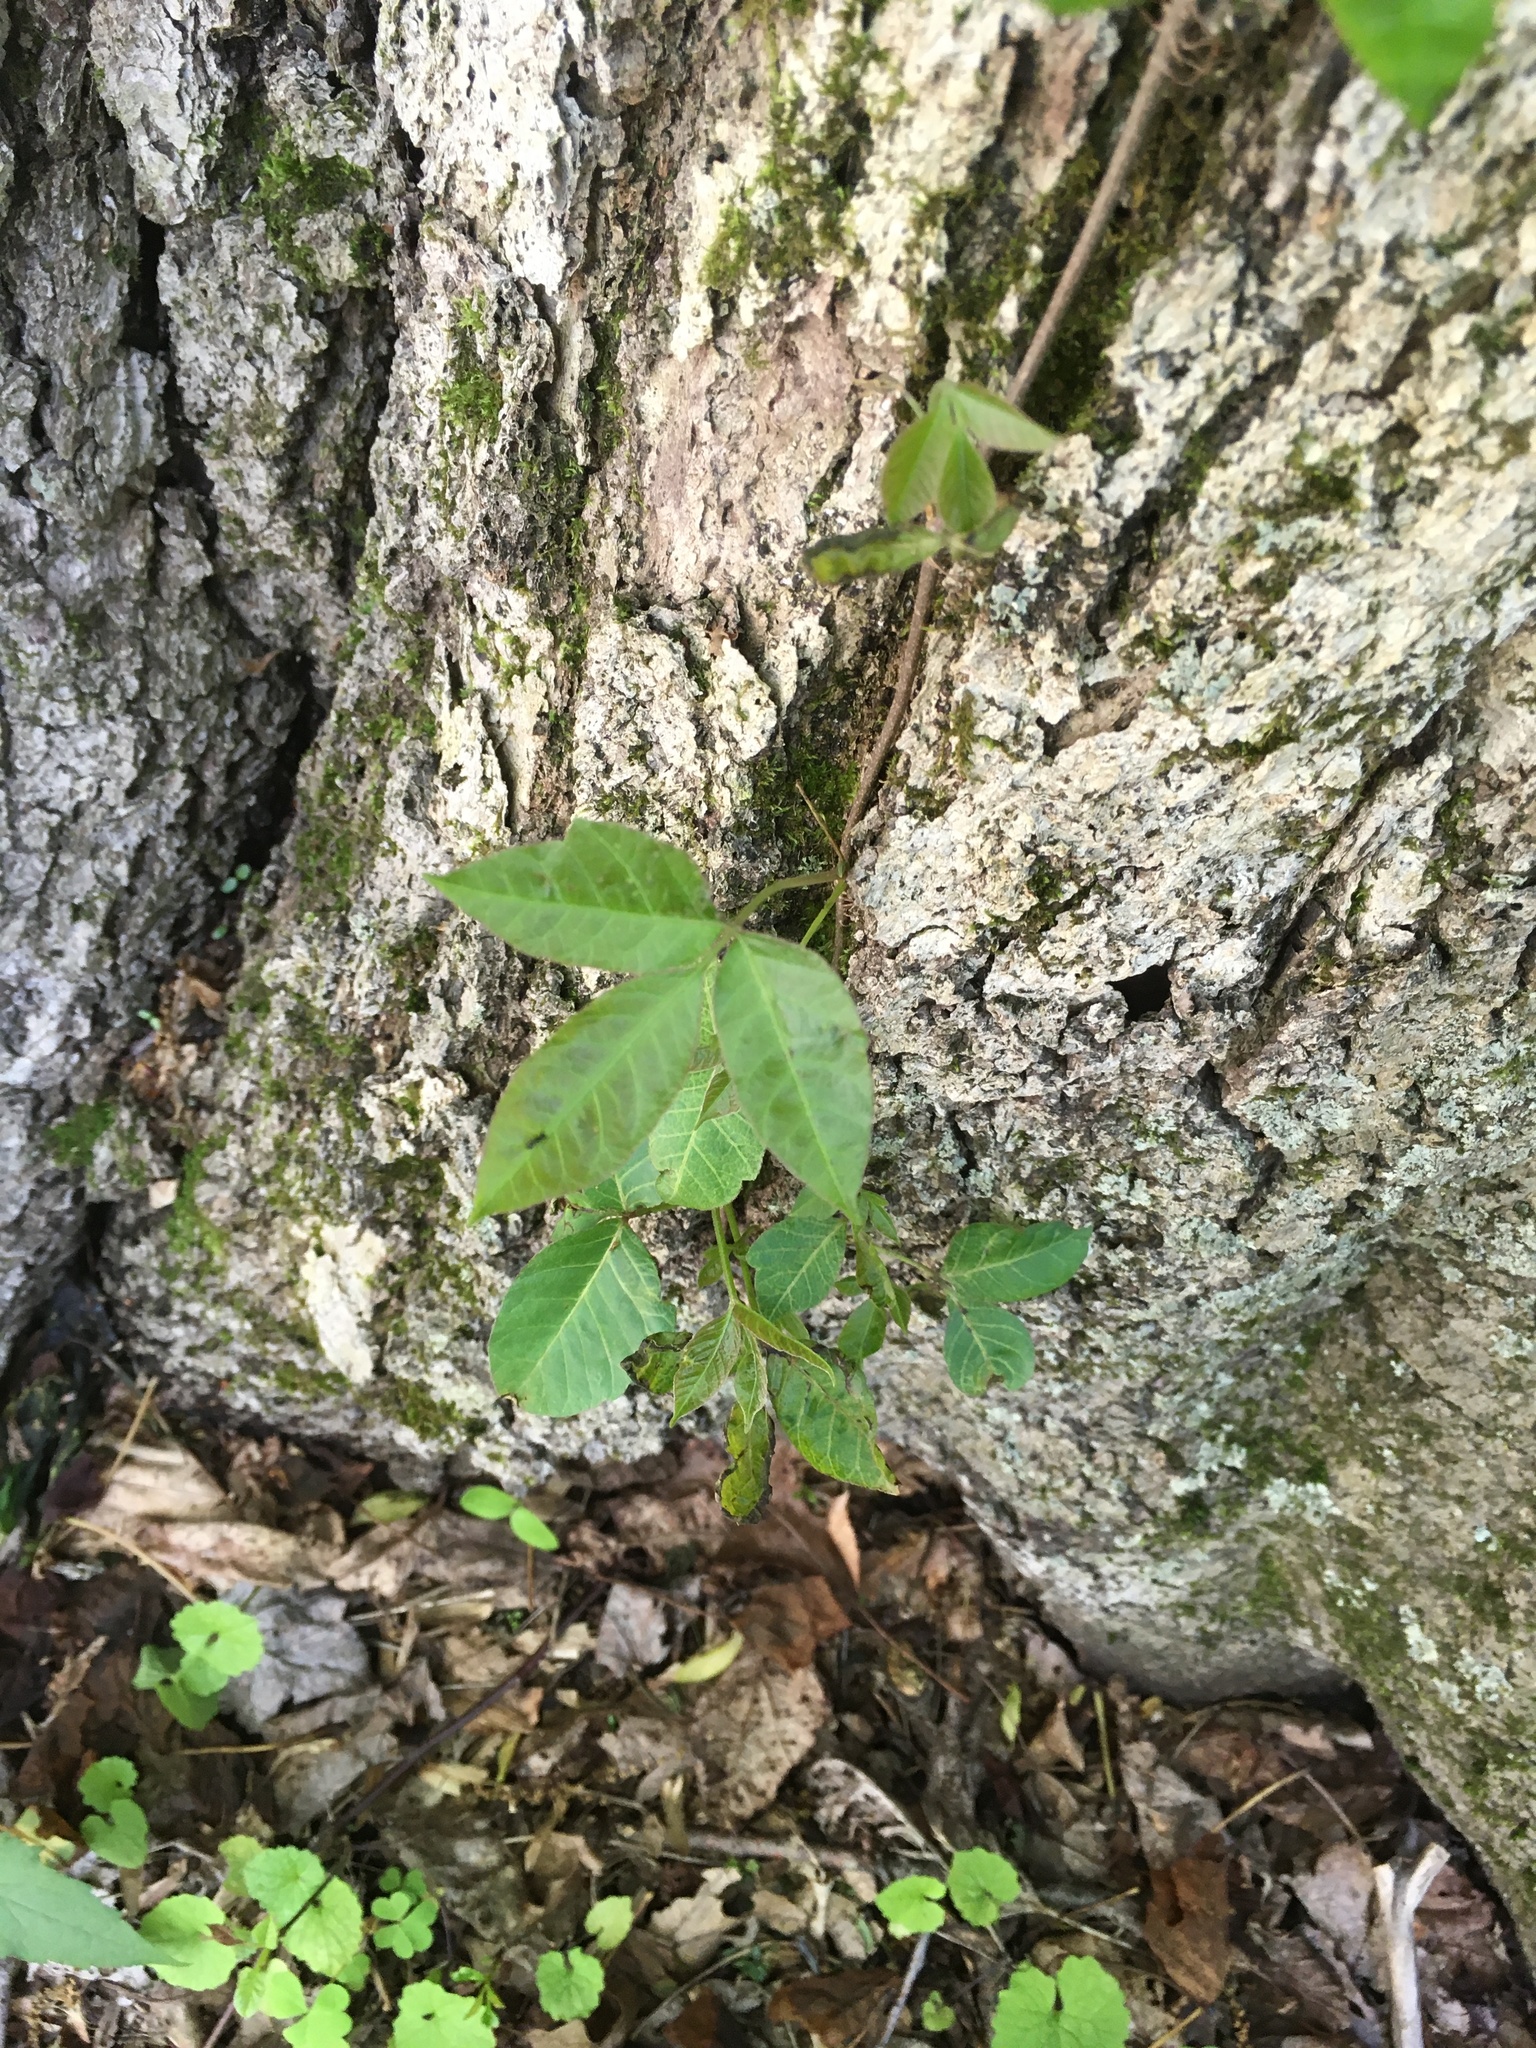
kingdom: Plantae
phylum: Tracheophyta
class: Magnoliopsida
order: Sapindales
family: Anacardiaceae
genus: Toxicodendron
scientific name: Toxicodendron radicans
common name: Poison ivy
